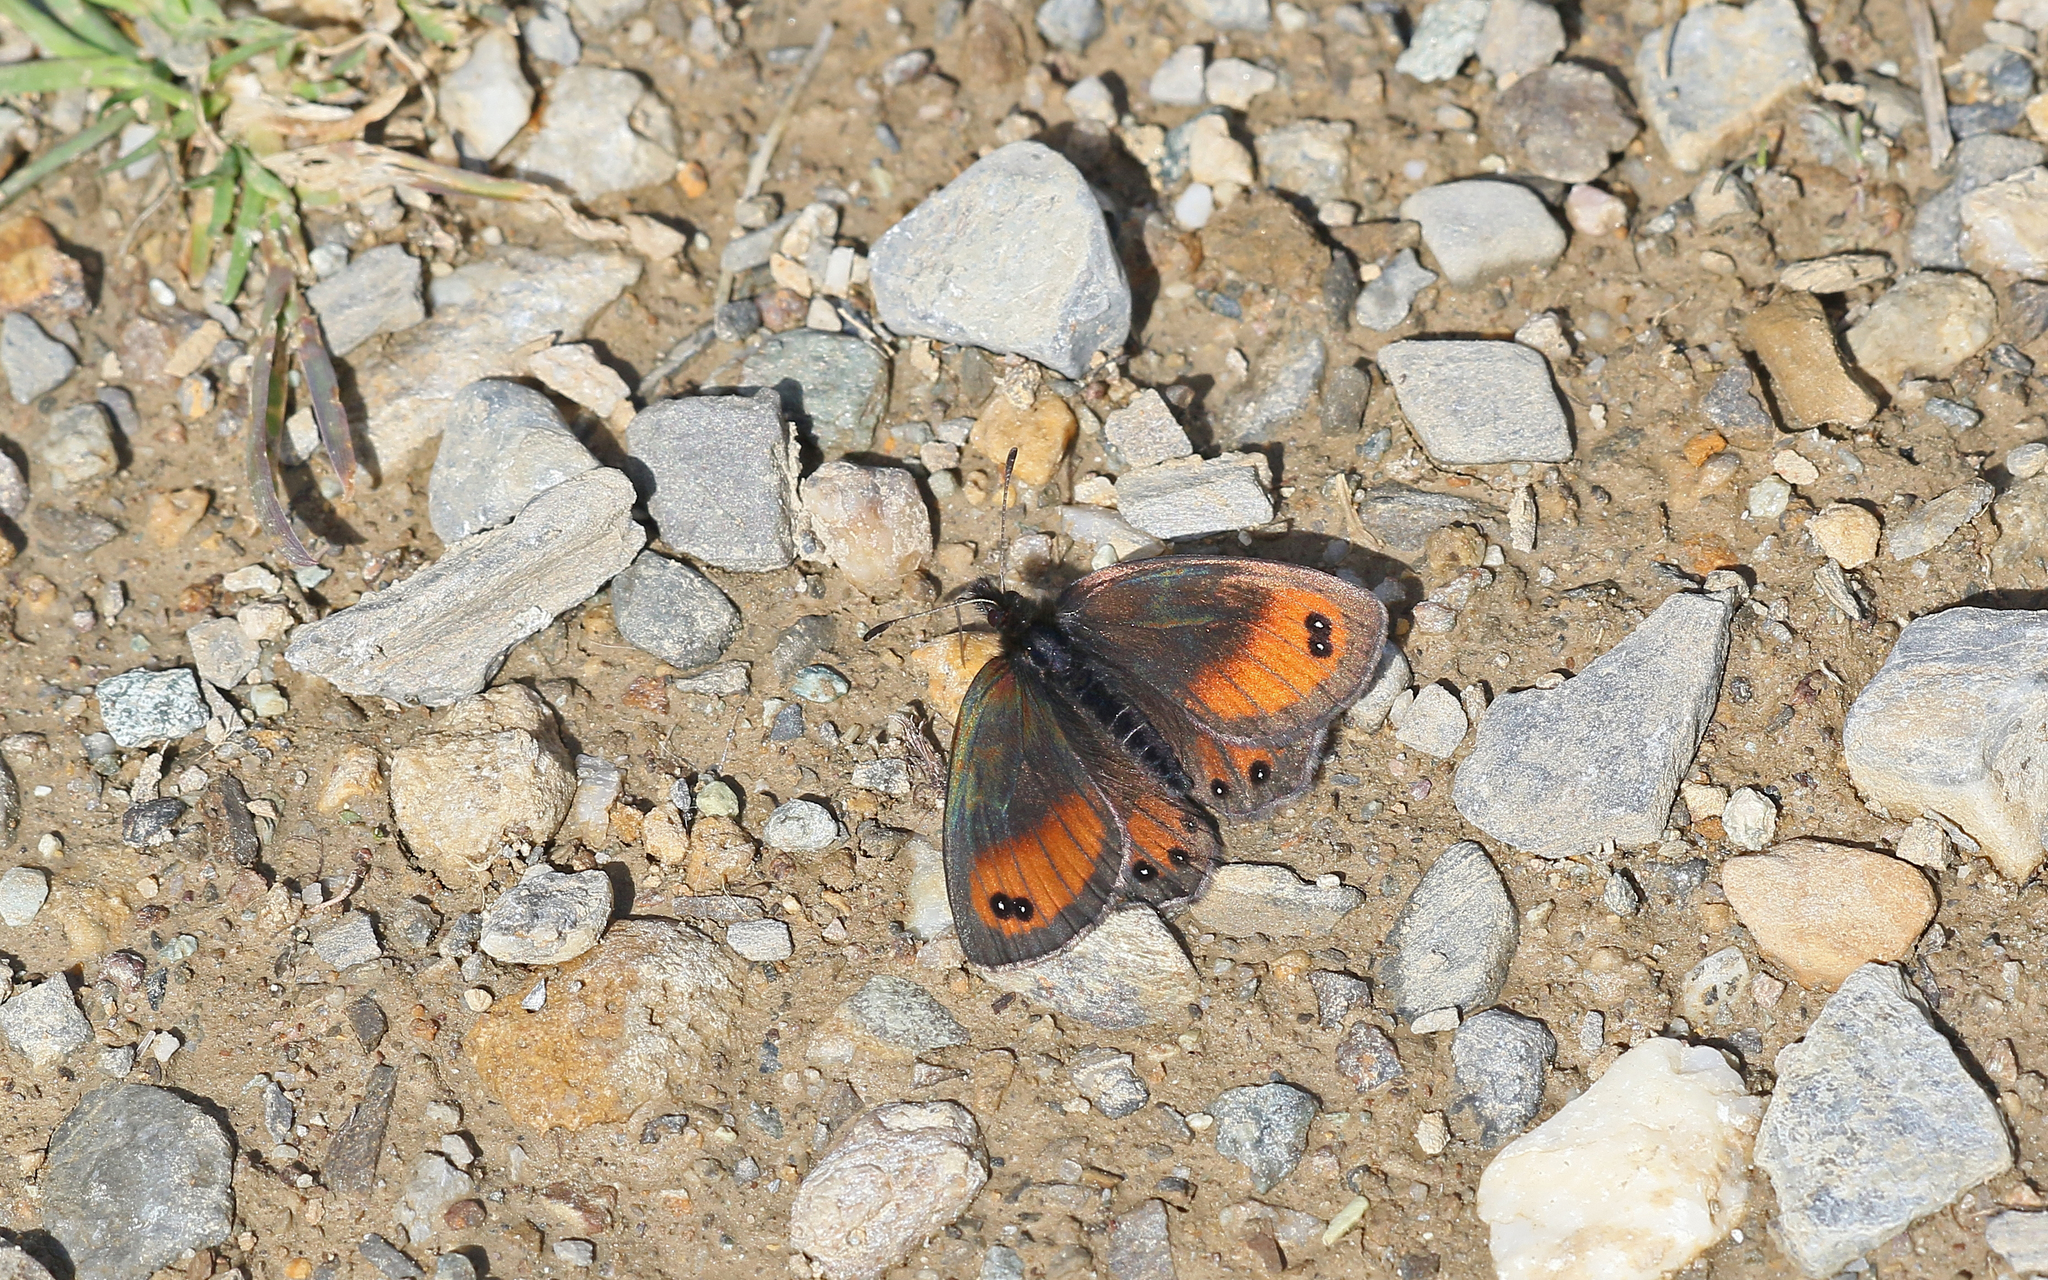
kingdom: Animalia
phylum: Arthropoda
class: Insecta
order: Lepidoptera
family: Nymphalidae
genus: Erebia
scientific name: Erebia gorge
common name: Silky ringlet
